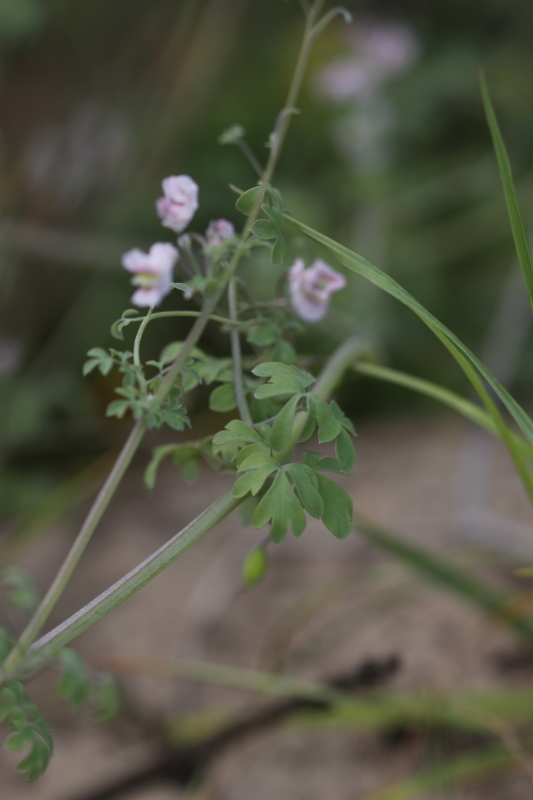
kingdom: Plantae
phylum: Tracheophyta
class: Magnoliopsida
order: Ranunculales
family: Papaveraceae
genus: Cysticapnos
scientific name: Cysticapnos vesicaria
